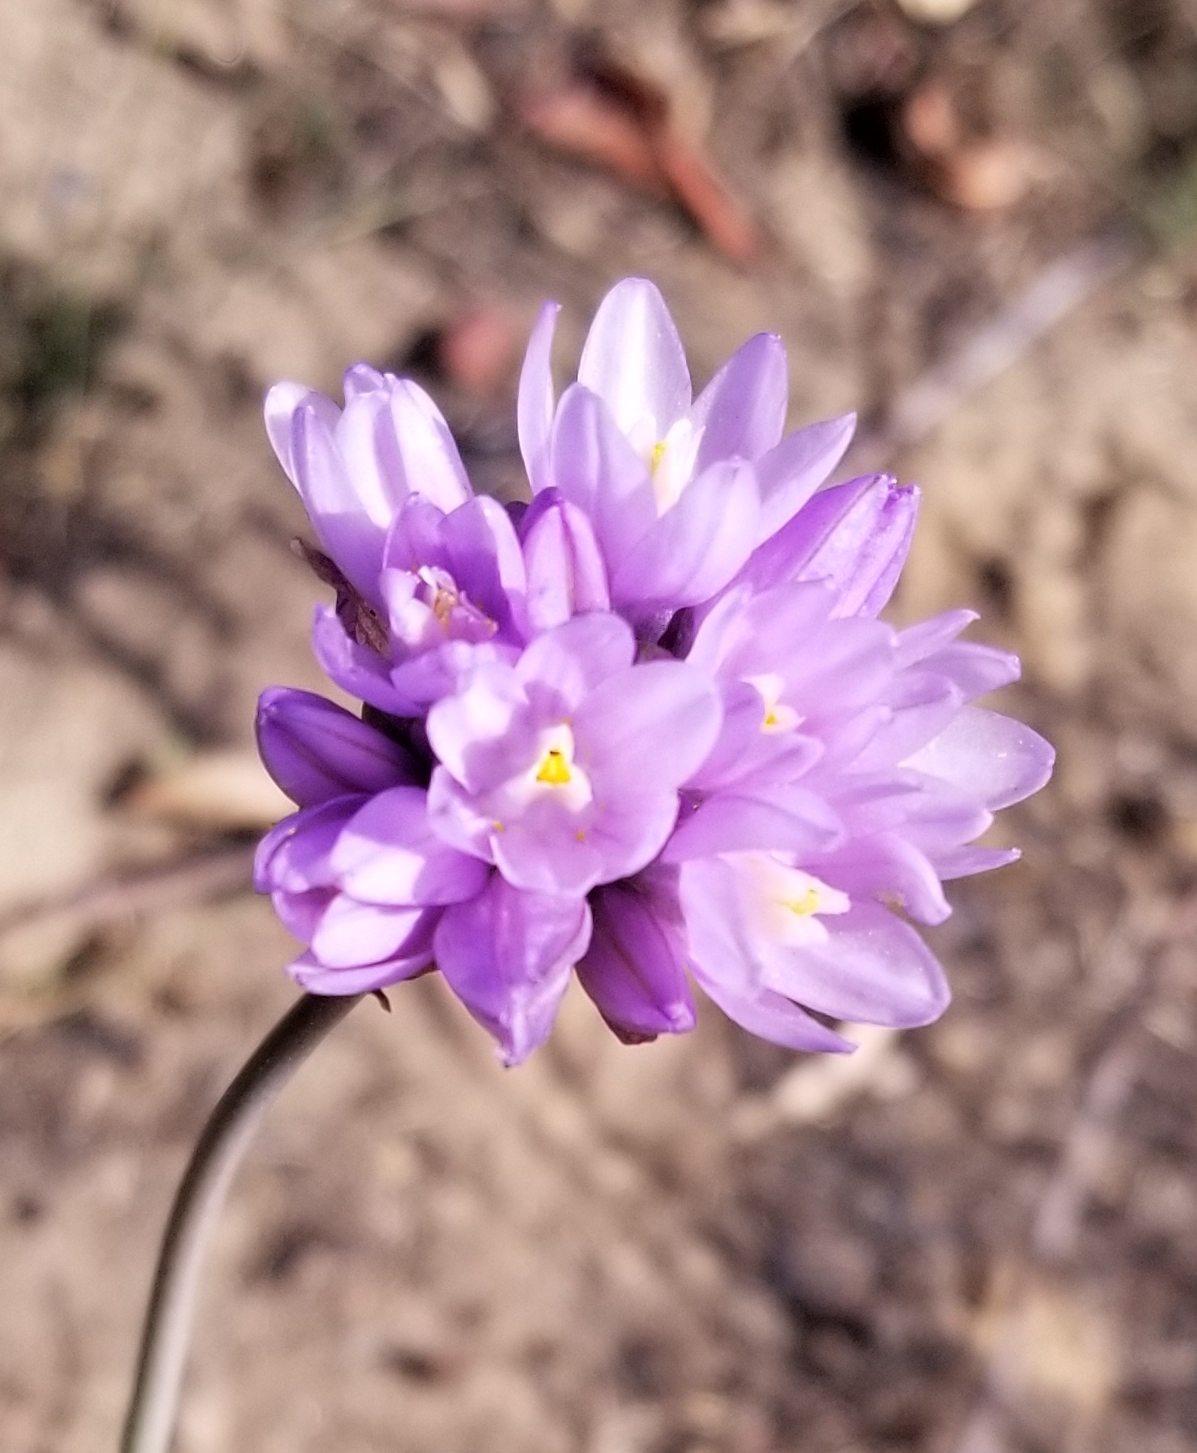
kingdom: Plantae
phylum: Tracheophyta
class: Liliopsida
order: Asparagales
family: Asparagaceae
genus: Dipterostemon
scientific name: Dipterostemon capitatus
